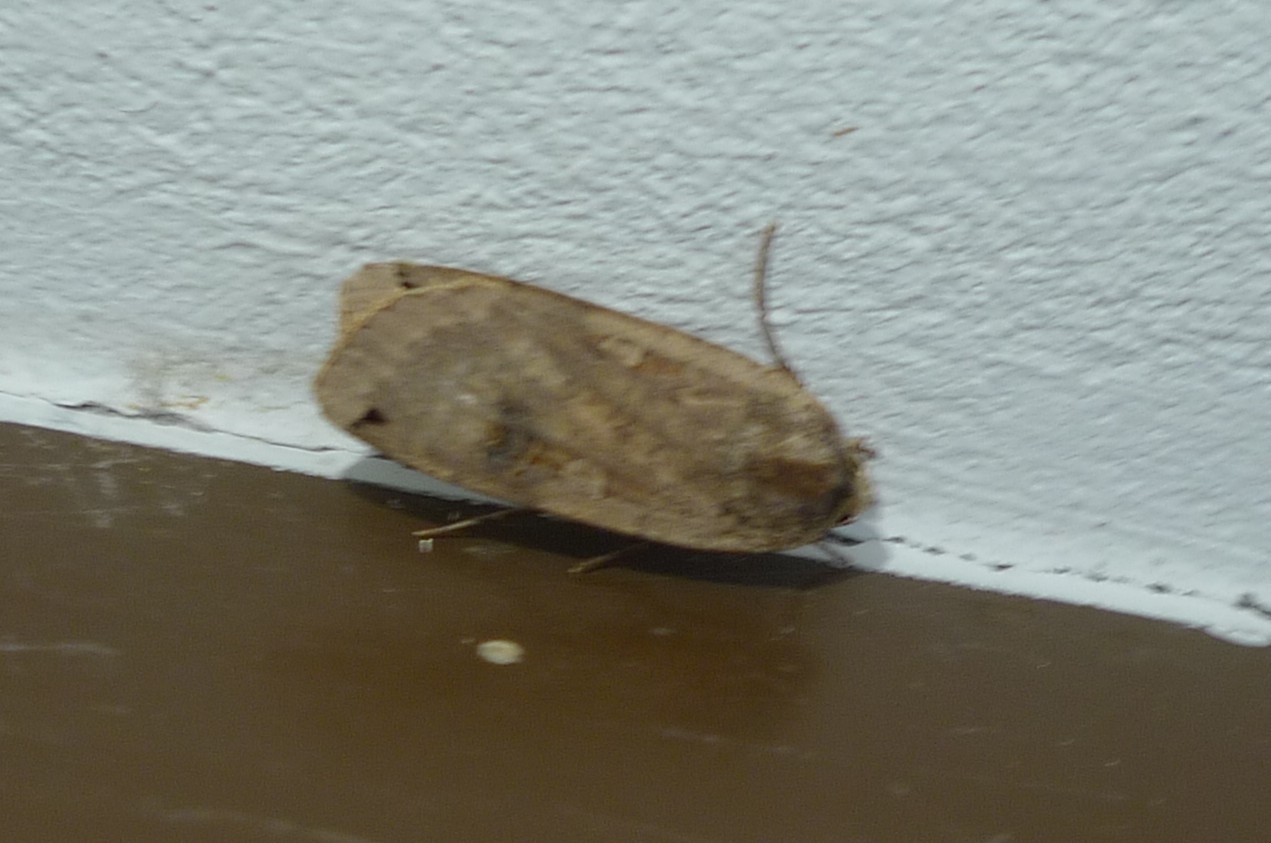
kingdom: Animalia
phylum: Arthropoda
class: Insecta
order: Lepidoptera
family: Noctuidae
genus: Noctua
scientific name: Noctua pronuba
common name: Large yellow underwing
